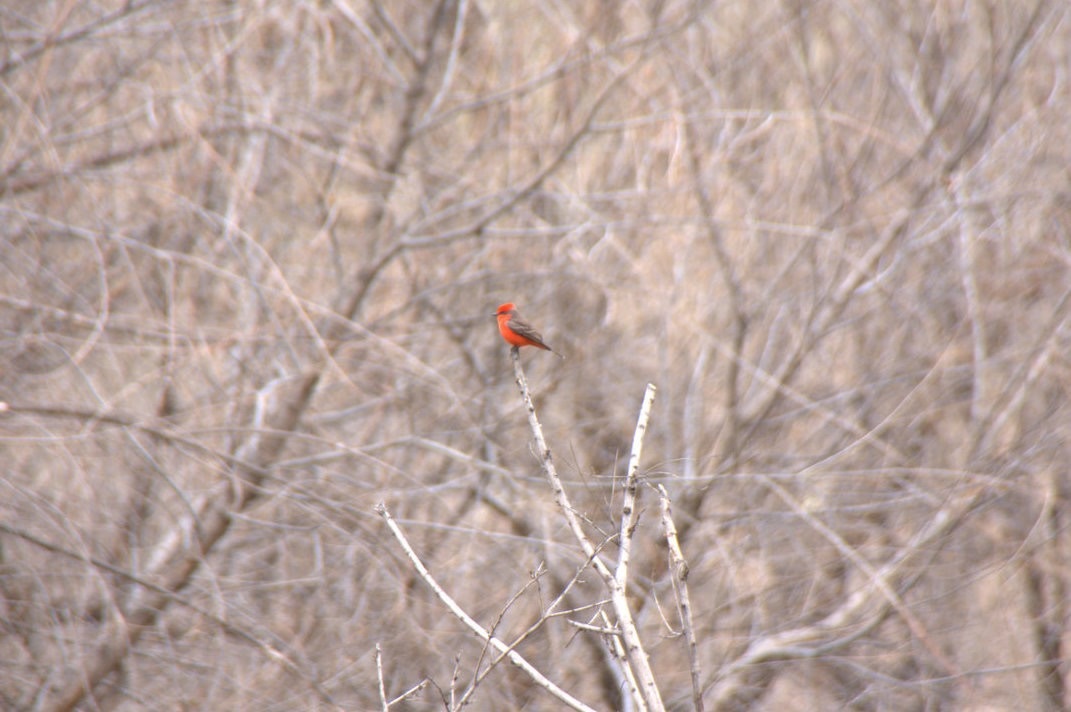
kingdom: Animalia
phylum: Chordata
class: Aves
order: Passeriformes
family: Tyrannidae
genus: Pyrocephalus
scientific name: Pyrocephalus rubinus
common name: Vermilion flycatcher
